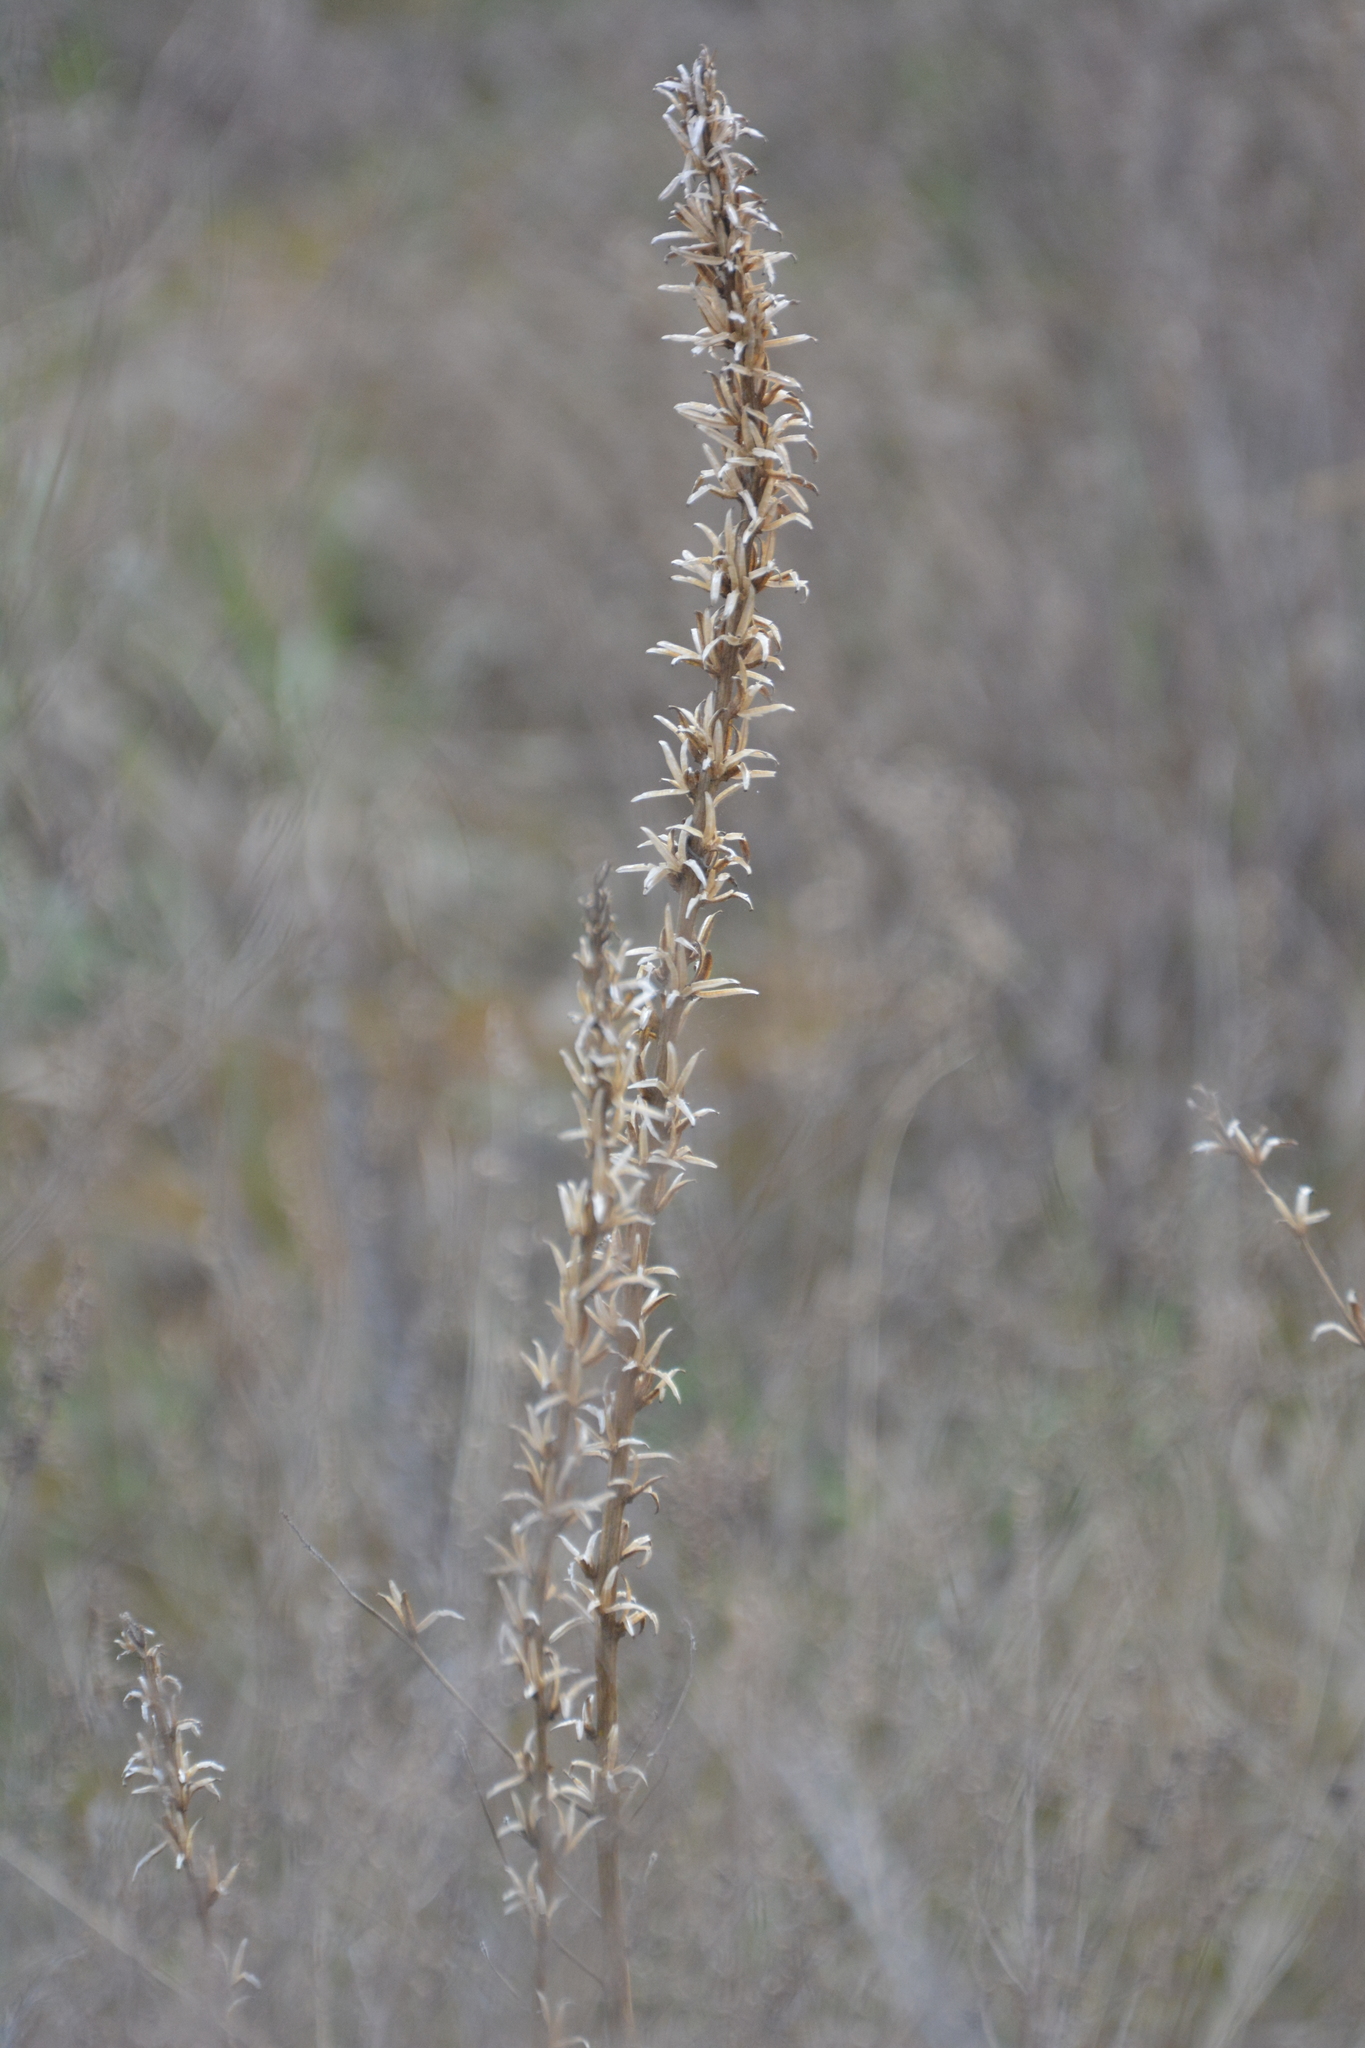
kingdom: Plantae
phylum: Tracheophyta
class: Magnoliopsida
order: Myrtales
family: Onagraceae
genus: Oenothera
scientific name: Oenothera
